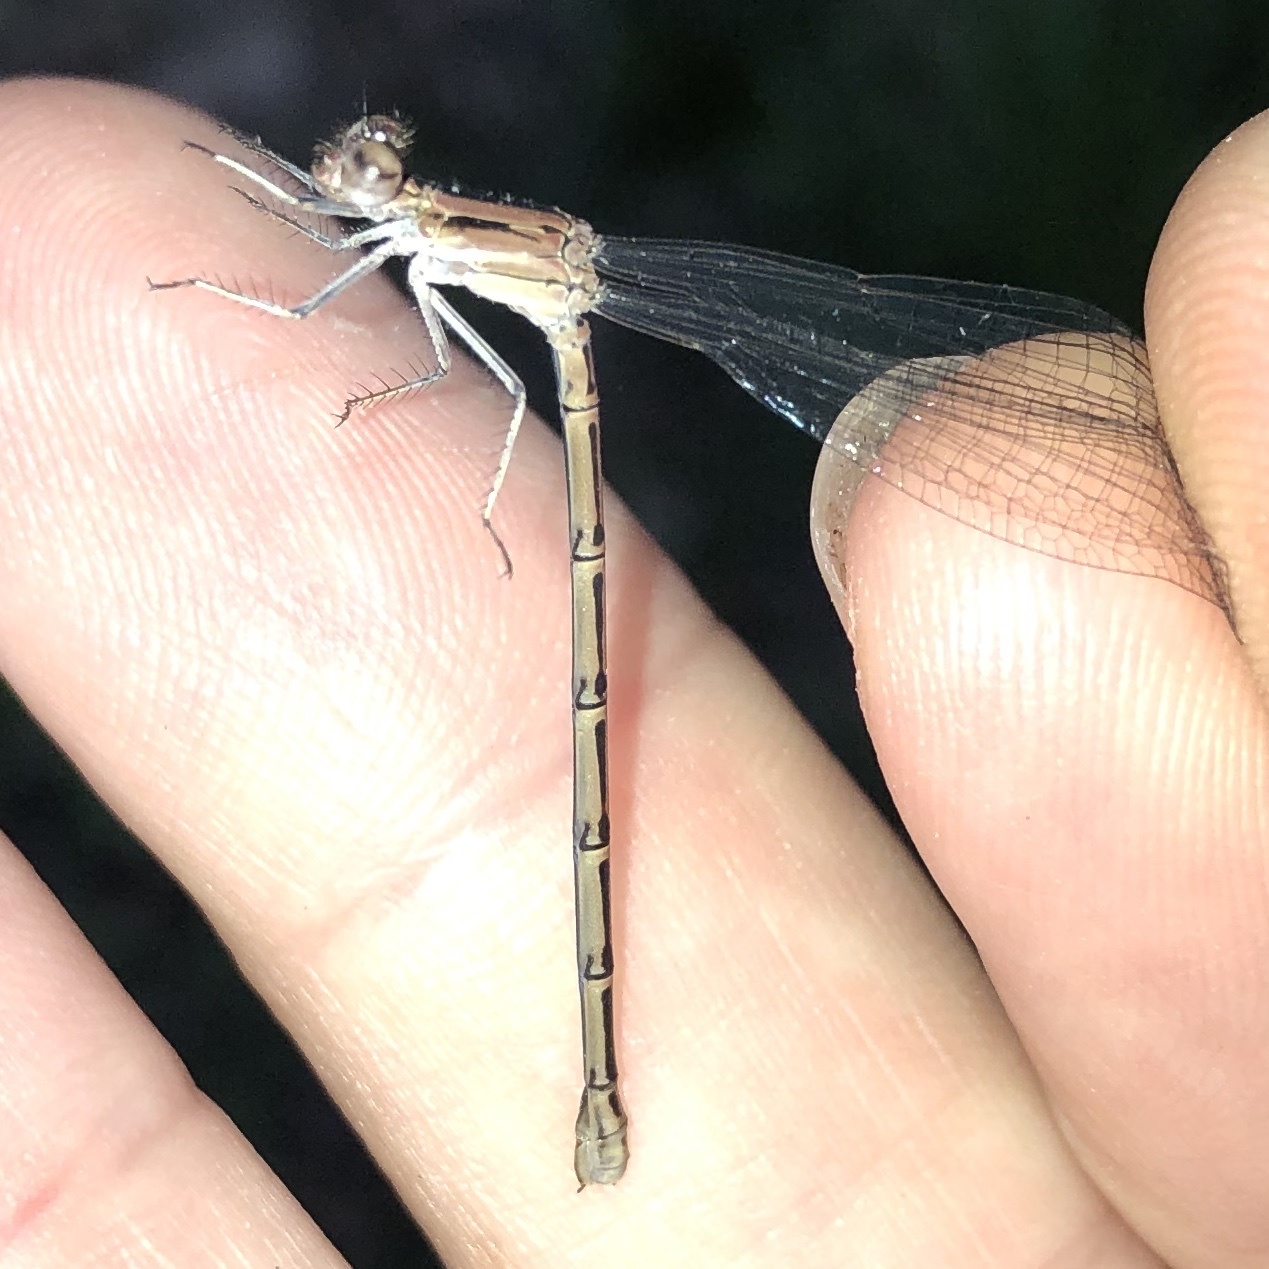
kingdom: Animalia
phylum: Arthropoda
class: Insecta
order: Odonata
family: Coenagrionidae
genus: Argia
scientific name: Argia fumipennis
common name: Variable dancer
